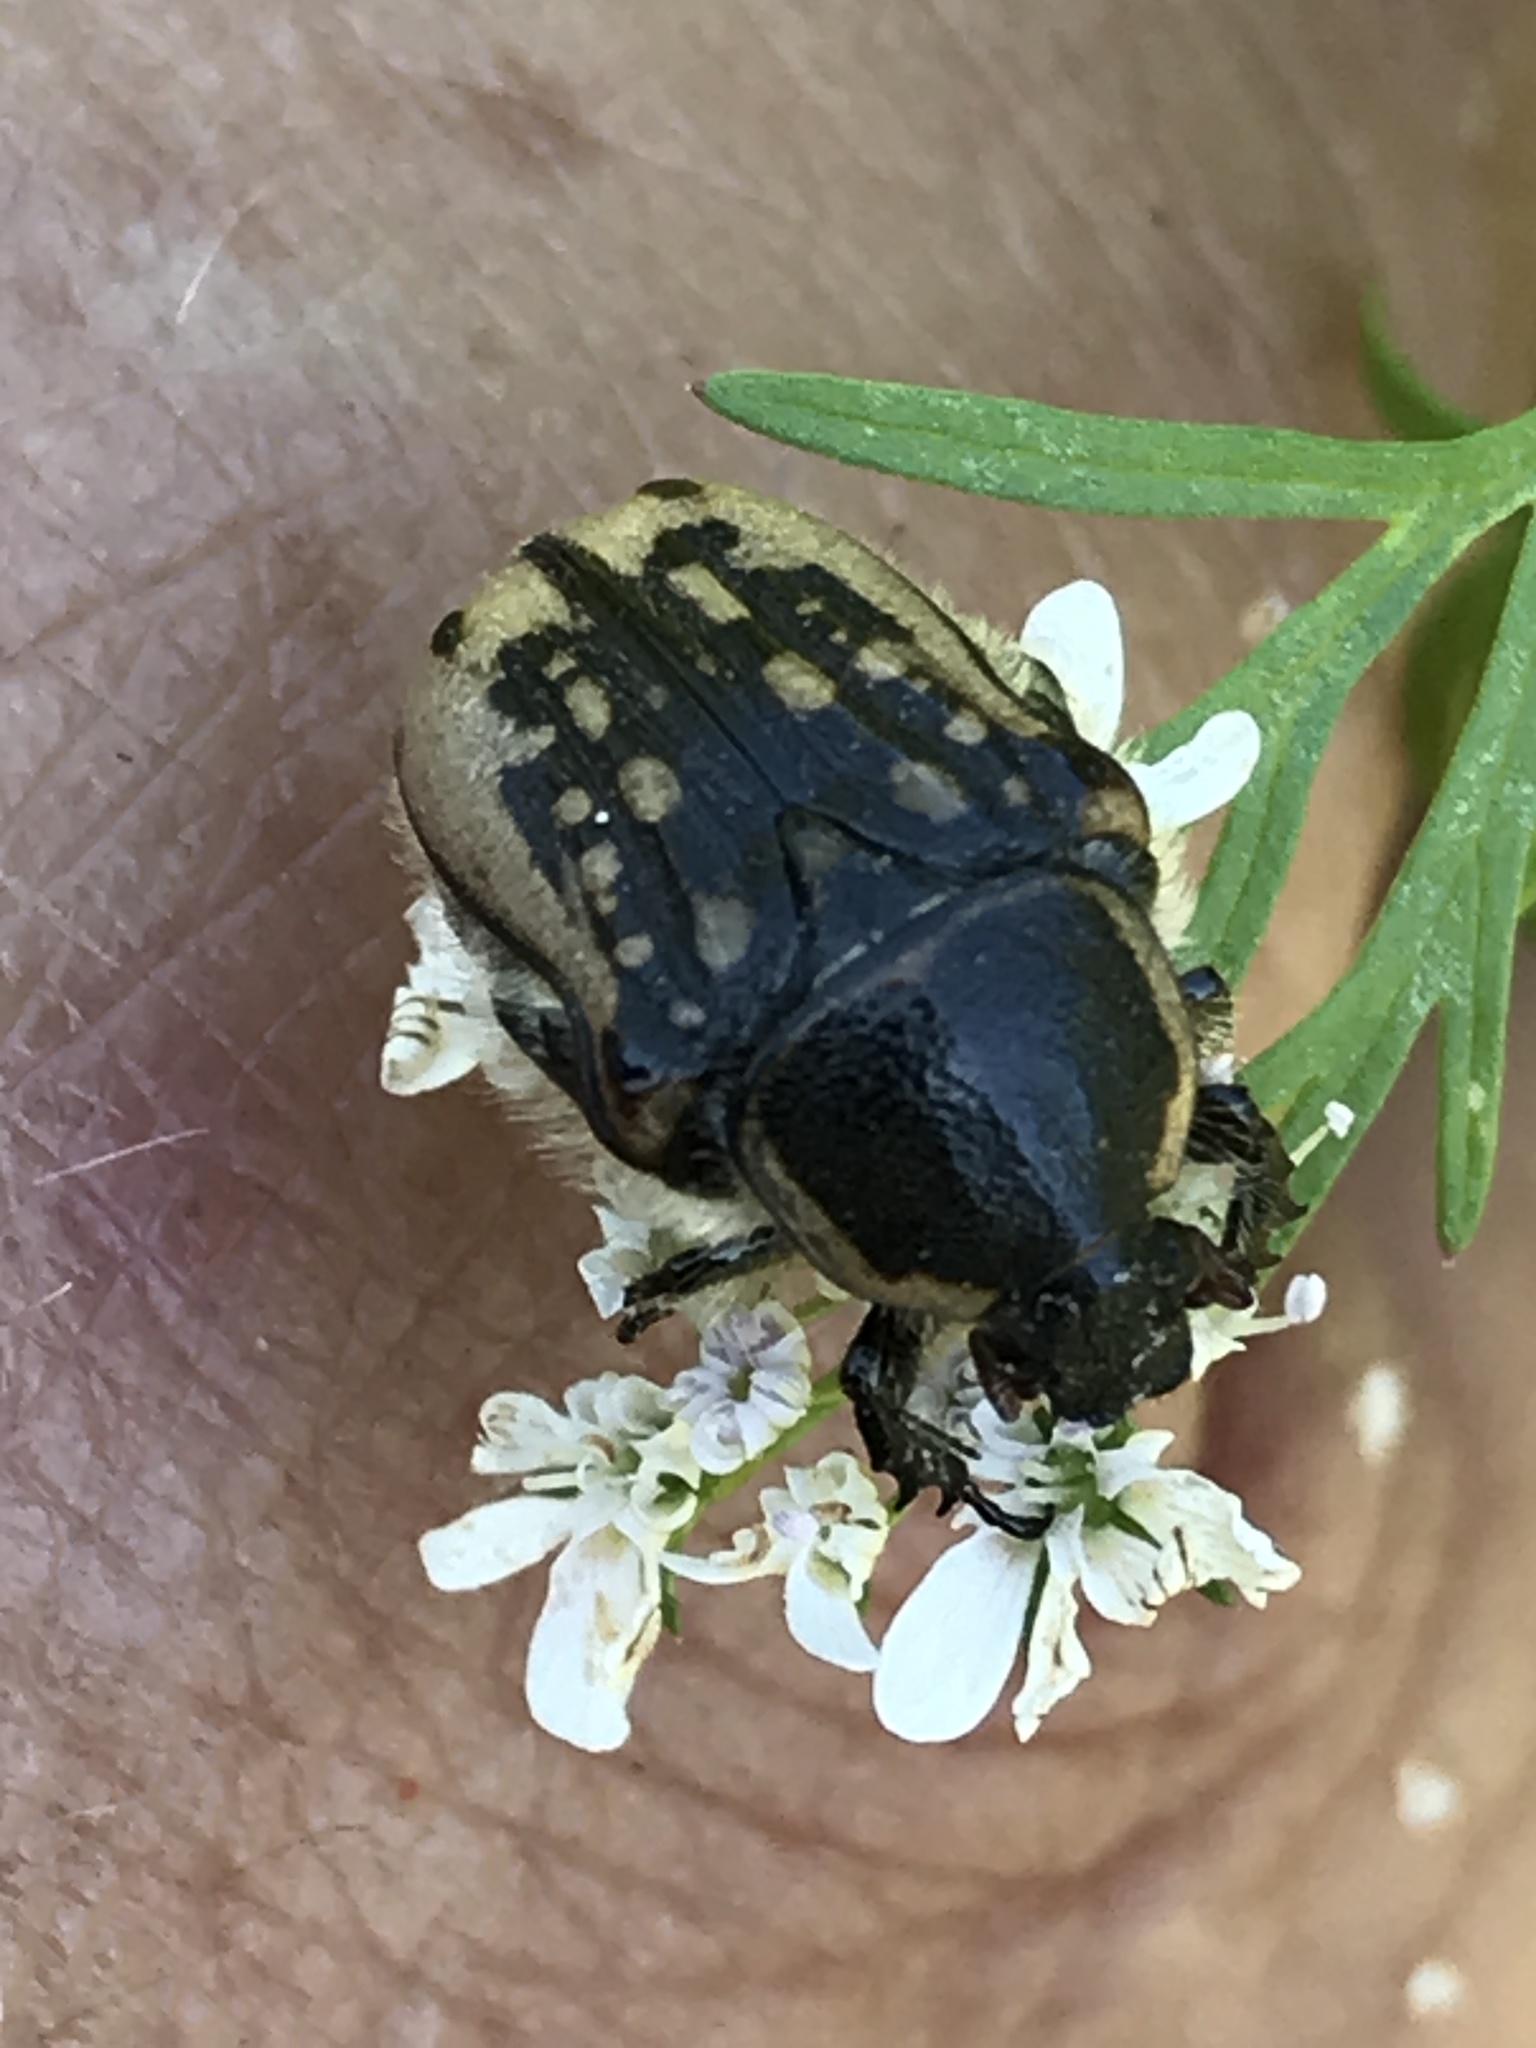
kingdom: Animalia
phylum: Arthropoda
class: Insecta
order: Coleoptera
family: Scarabaeidae
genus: Euphoria
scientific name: Euphoria kernii
